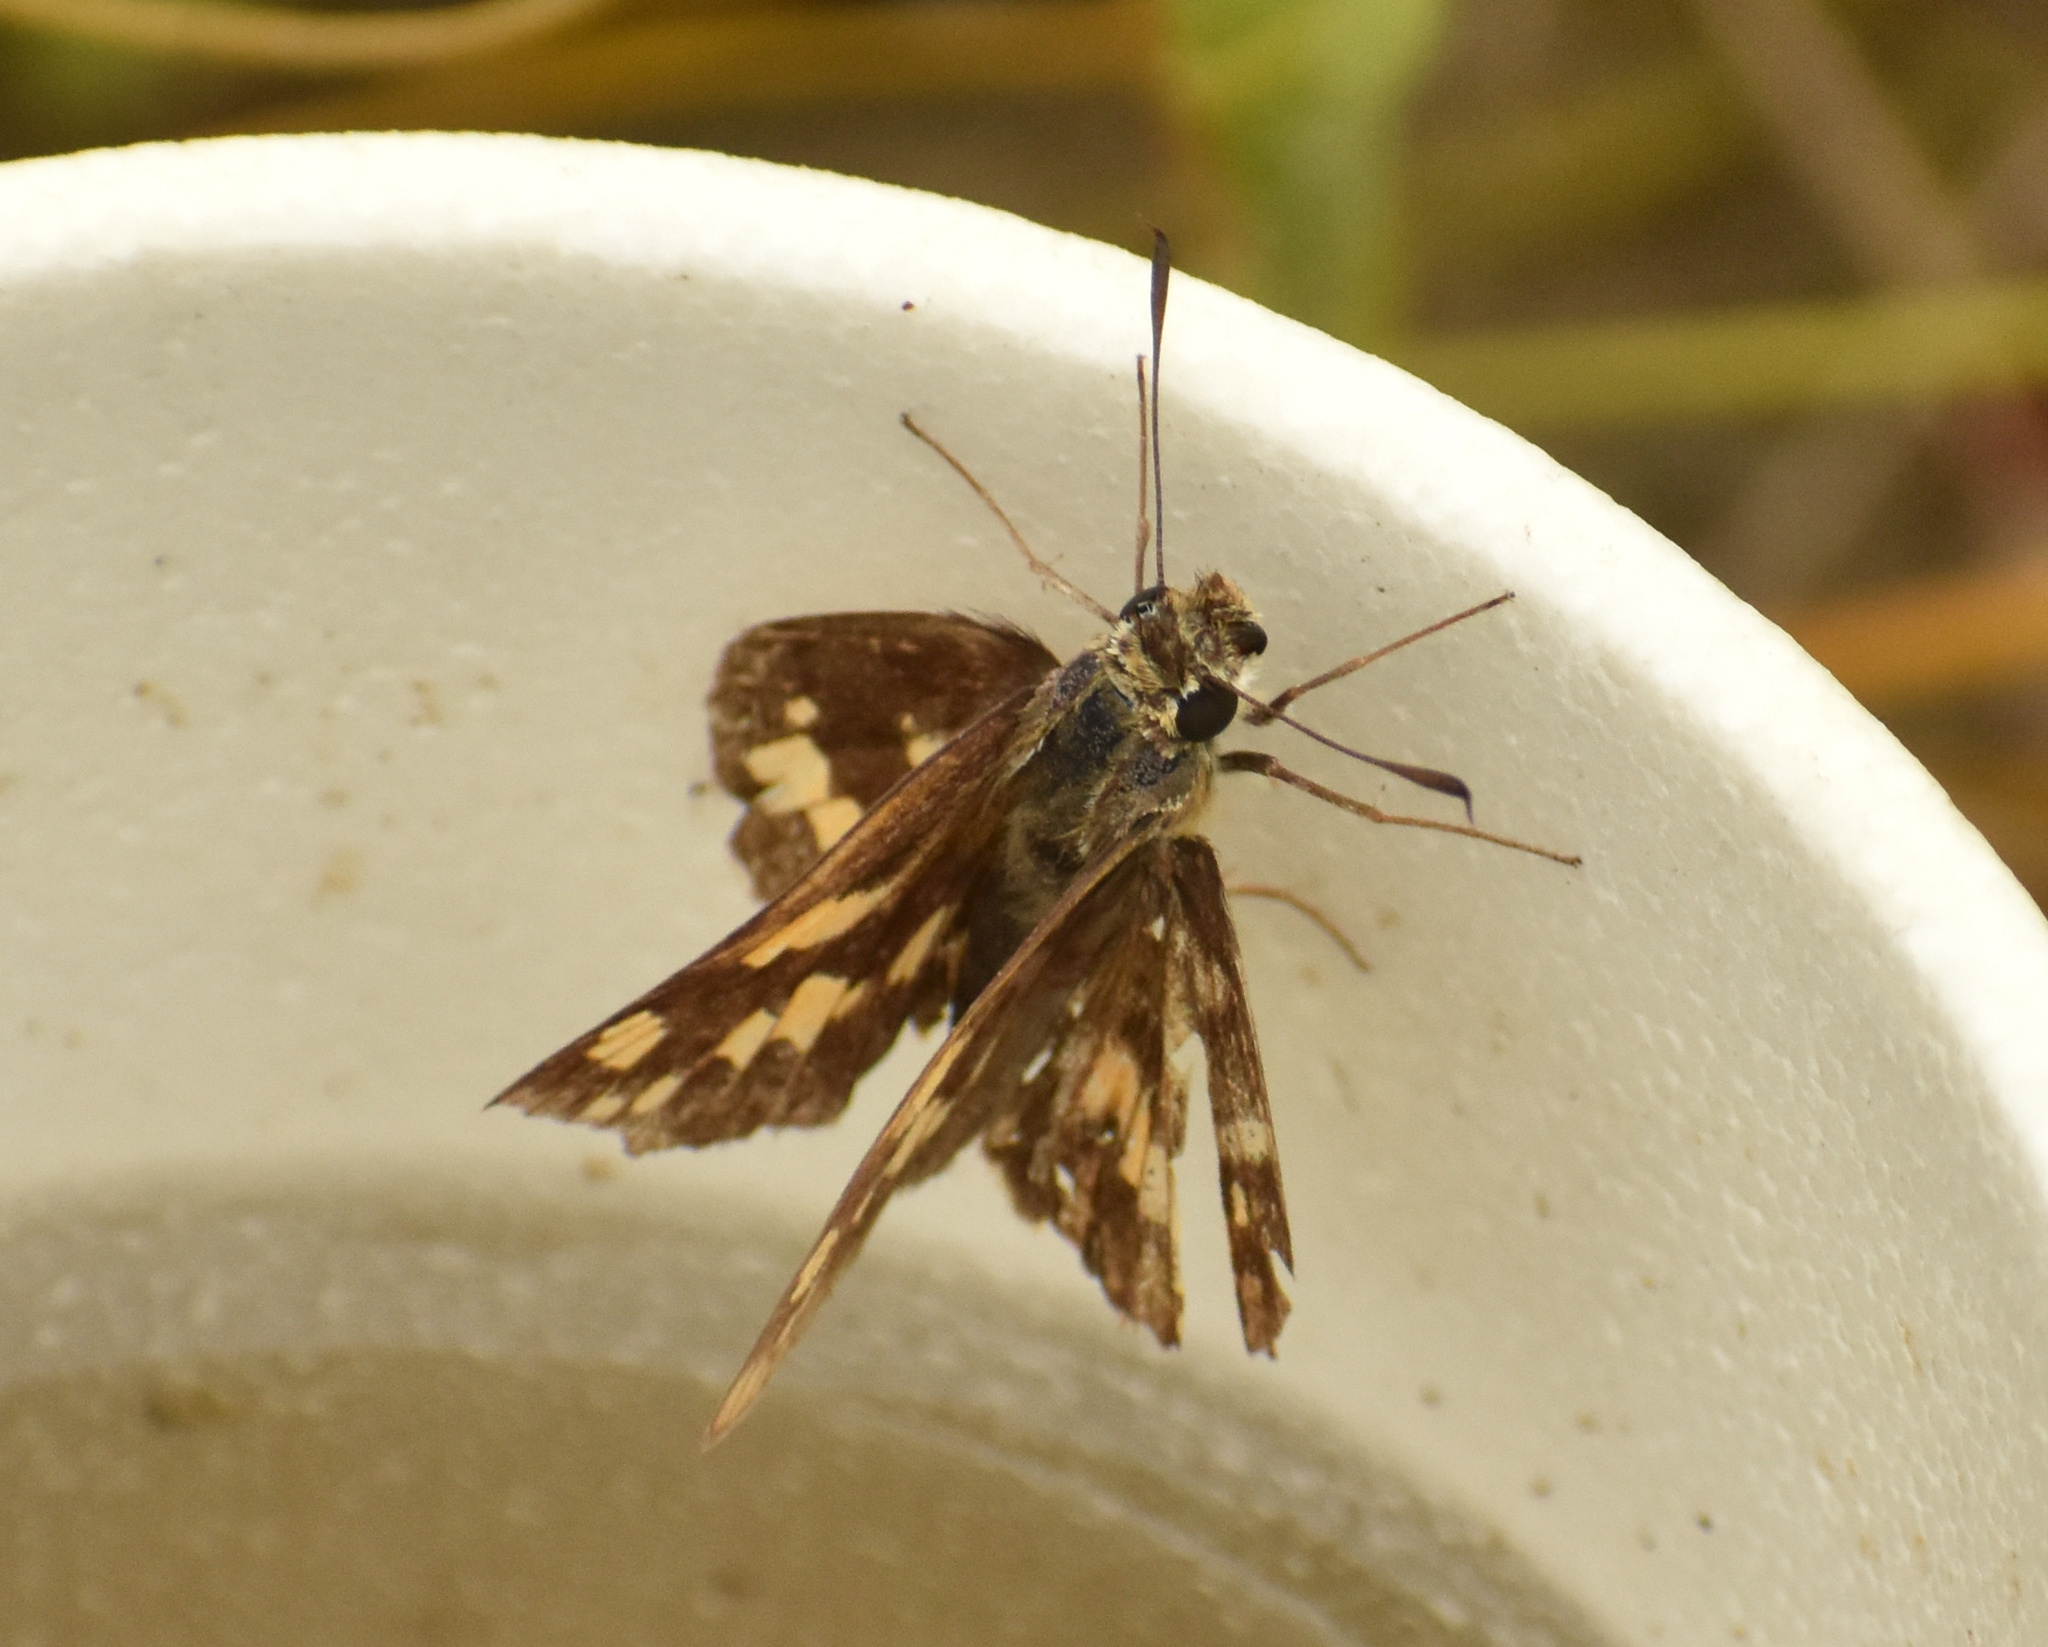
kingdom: Animalia
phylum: Arthropoda
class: Insecta
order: Lepidoptera
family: Hesperiidae
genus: Kedestes
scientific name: Kedestes lepenula
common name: Chequered ranger
